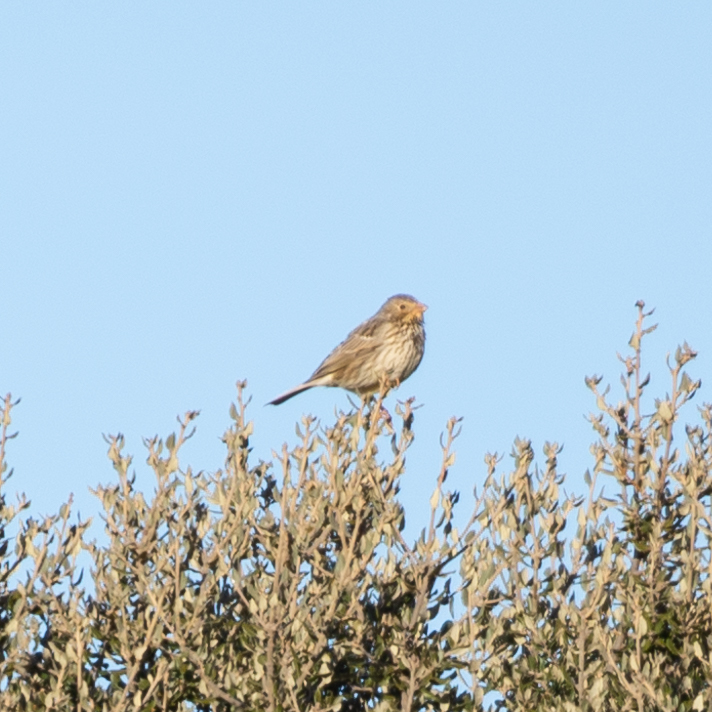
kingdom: Animalia
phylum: Chordata
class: Aves
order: Passeriformes
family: Emberizidae
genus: Emberiza
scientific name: Emberiza calandra
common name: Corn bunting
